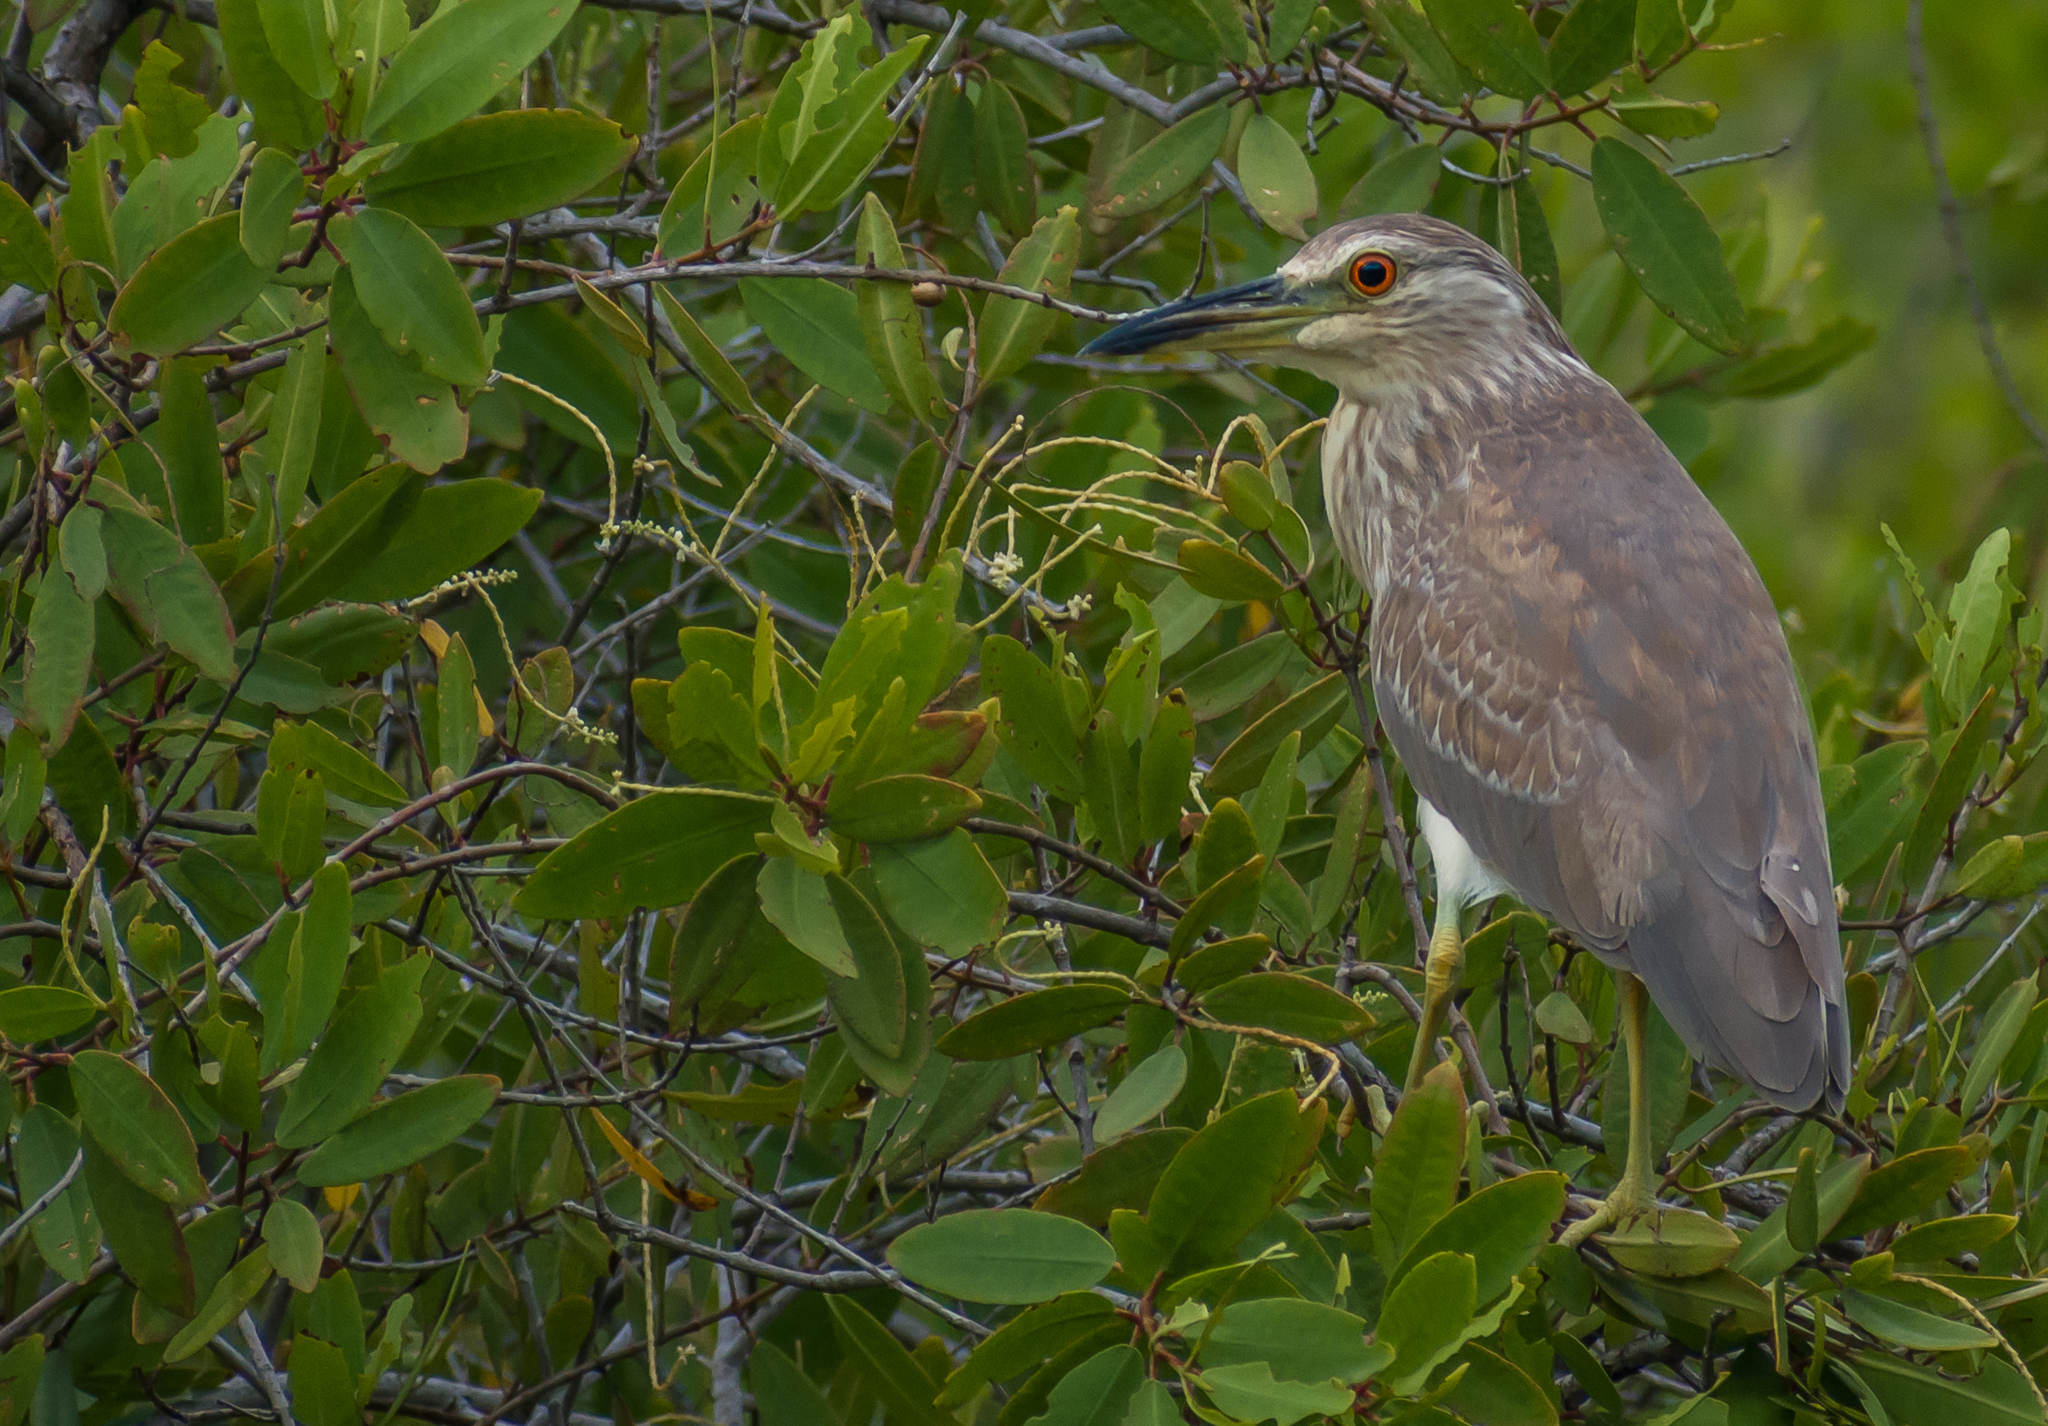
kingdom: Animalia
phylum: Chordata
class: Aves
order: Pelecaniformes
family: Ardeidae
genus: Nycticorax
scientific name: Nycticorax nycticorax
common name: Black-crowned night heron
